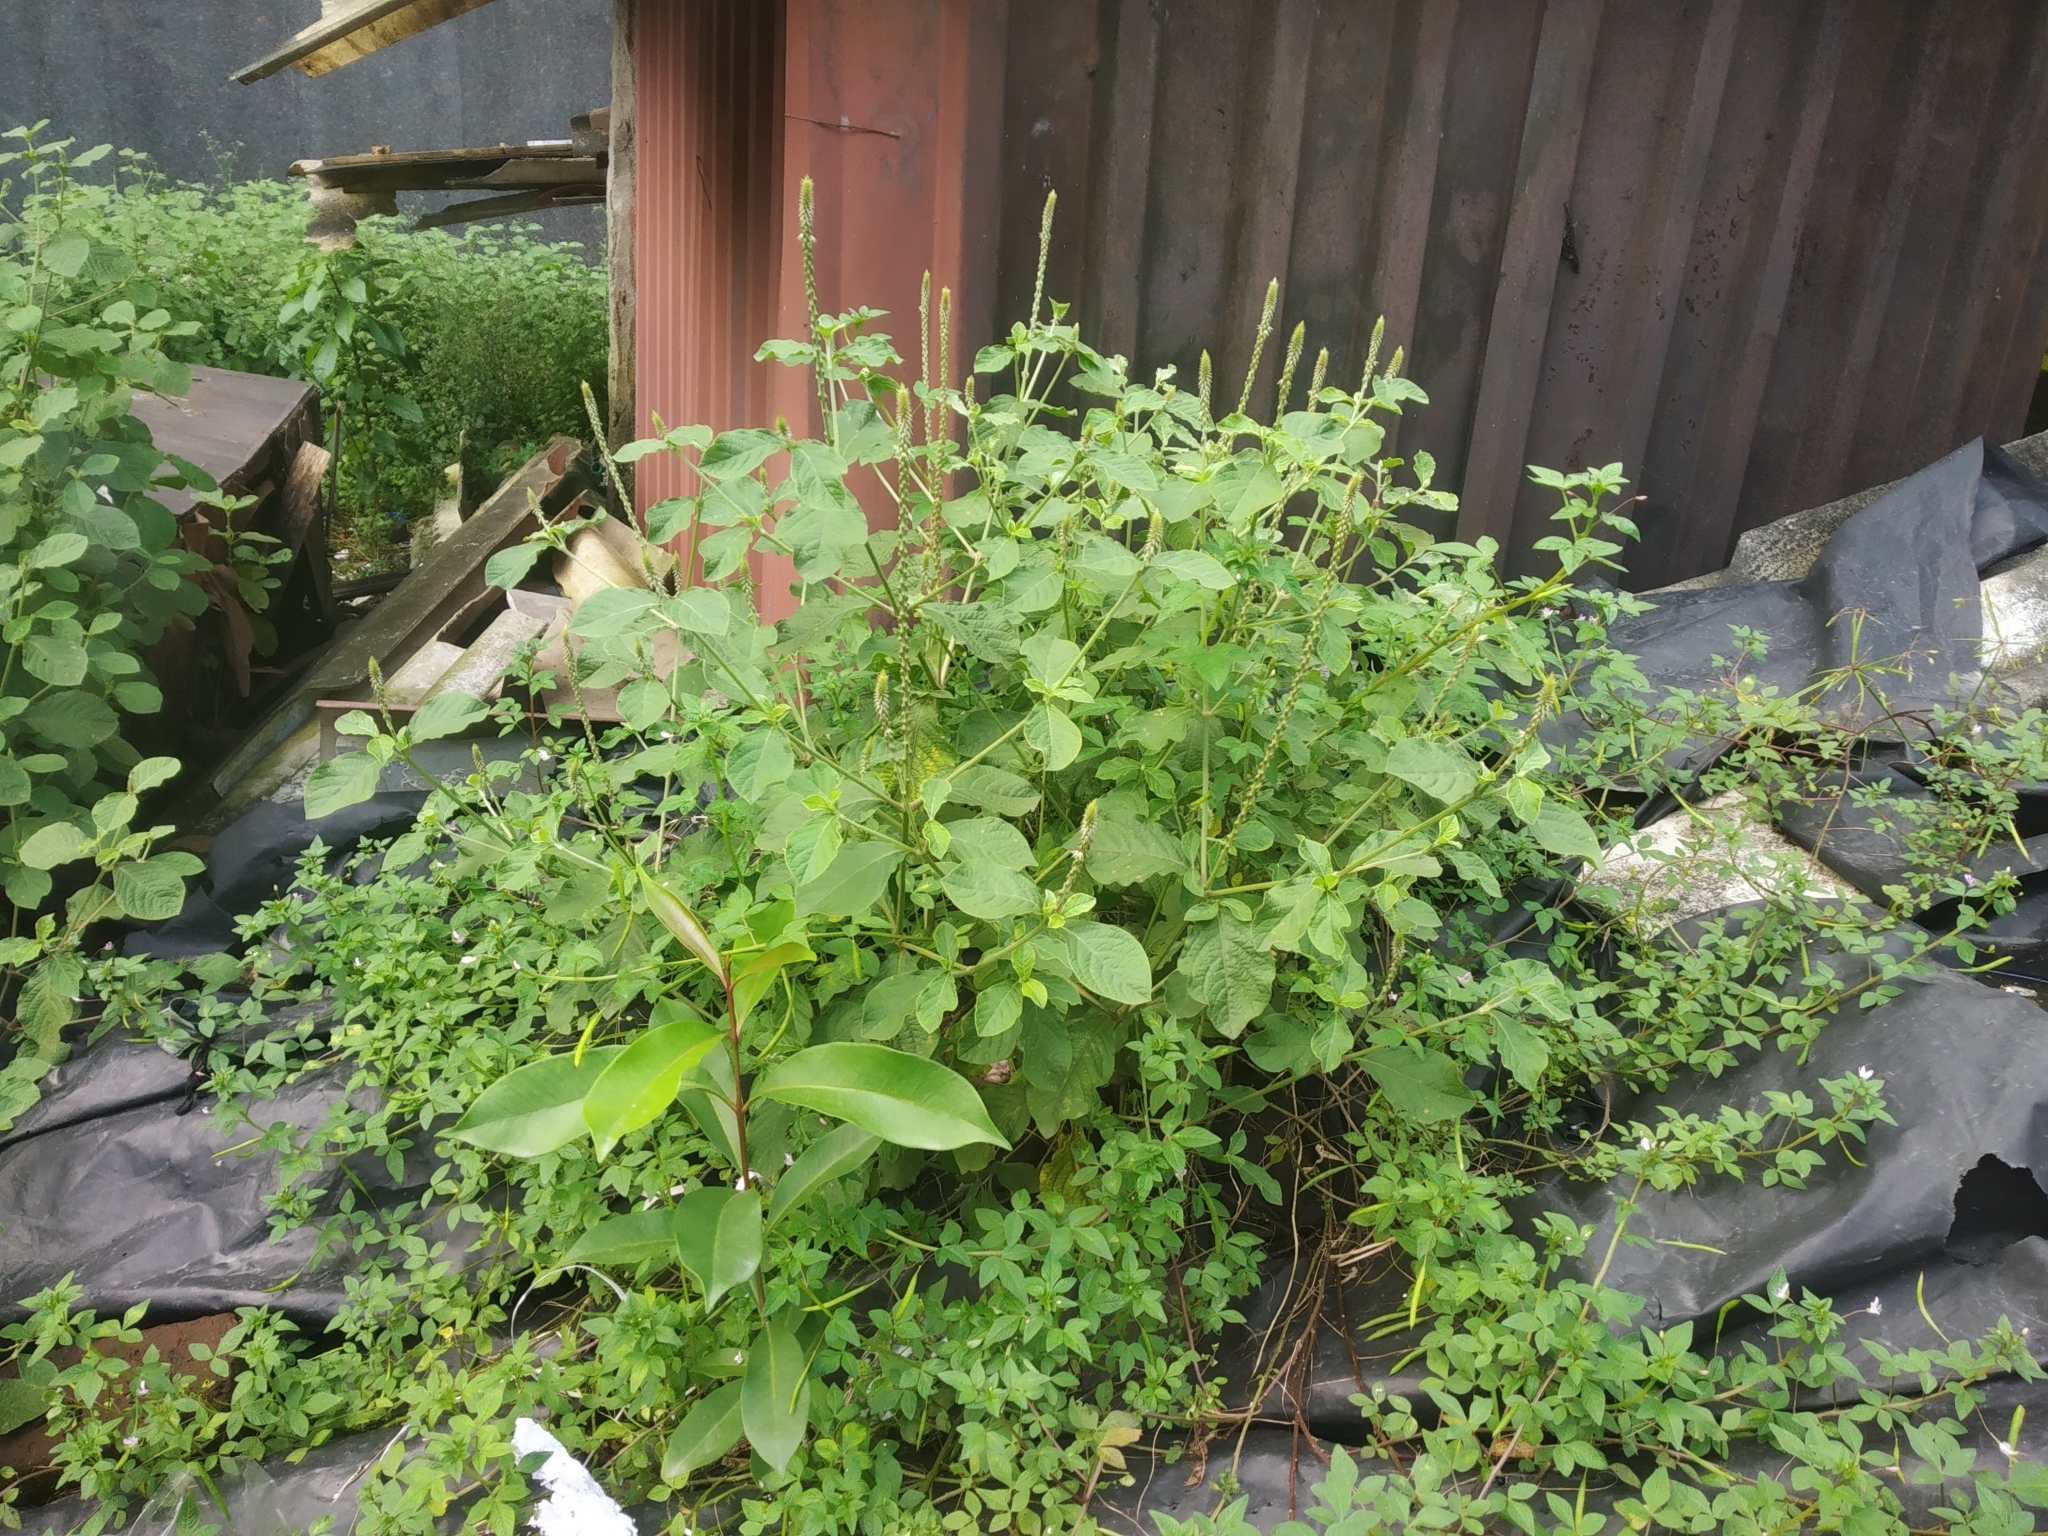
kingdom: Plantae
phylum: Tracheophyta
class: Magnoliopsida
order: Caryophyllales
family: Amaranthaceae
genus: Achyranthes
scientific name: Achyranthes aspera
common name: Devil's horsewhip
